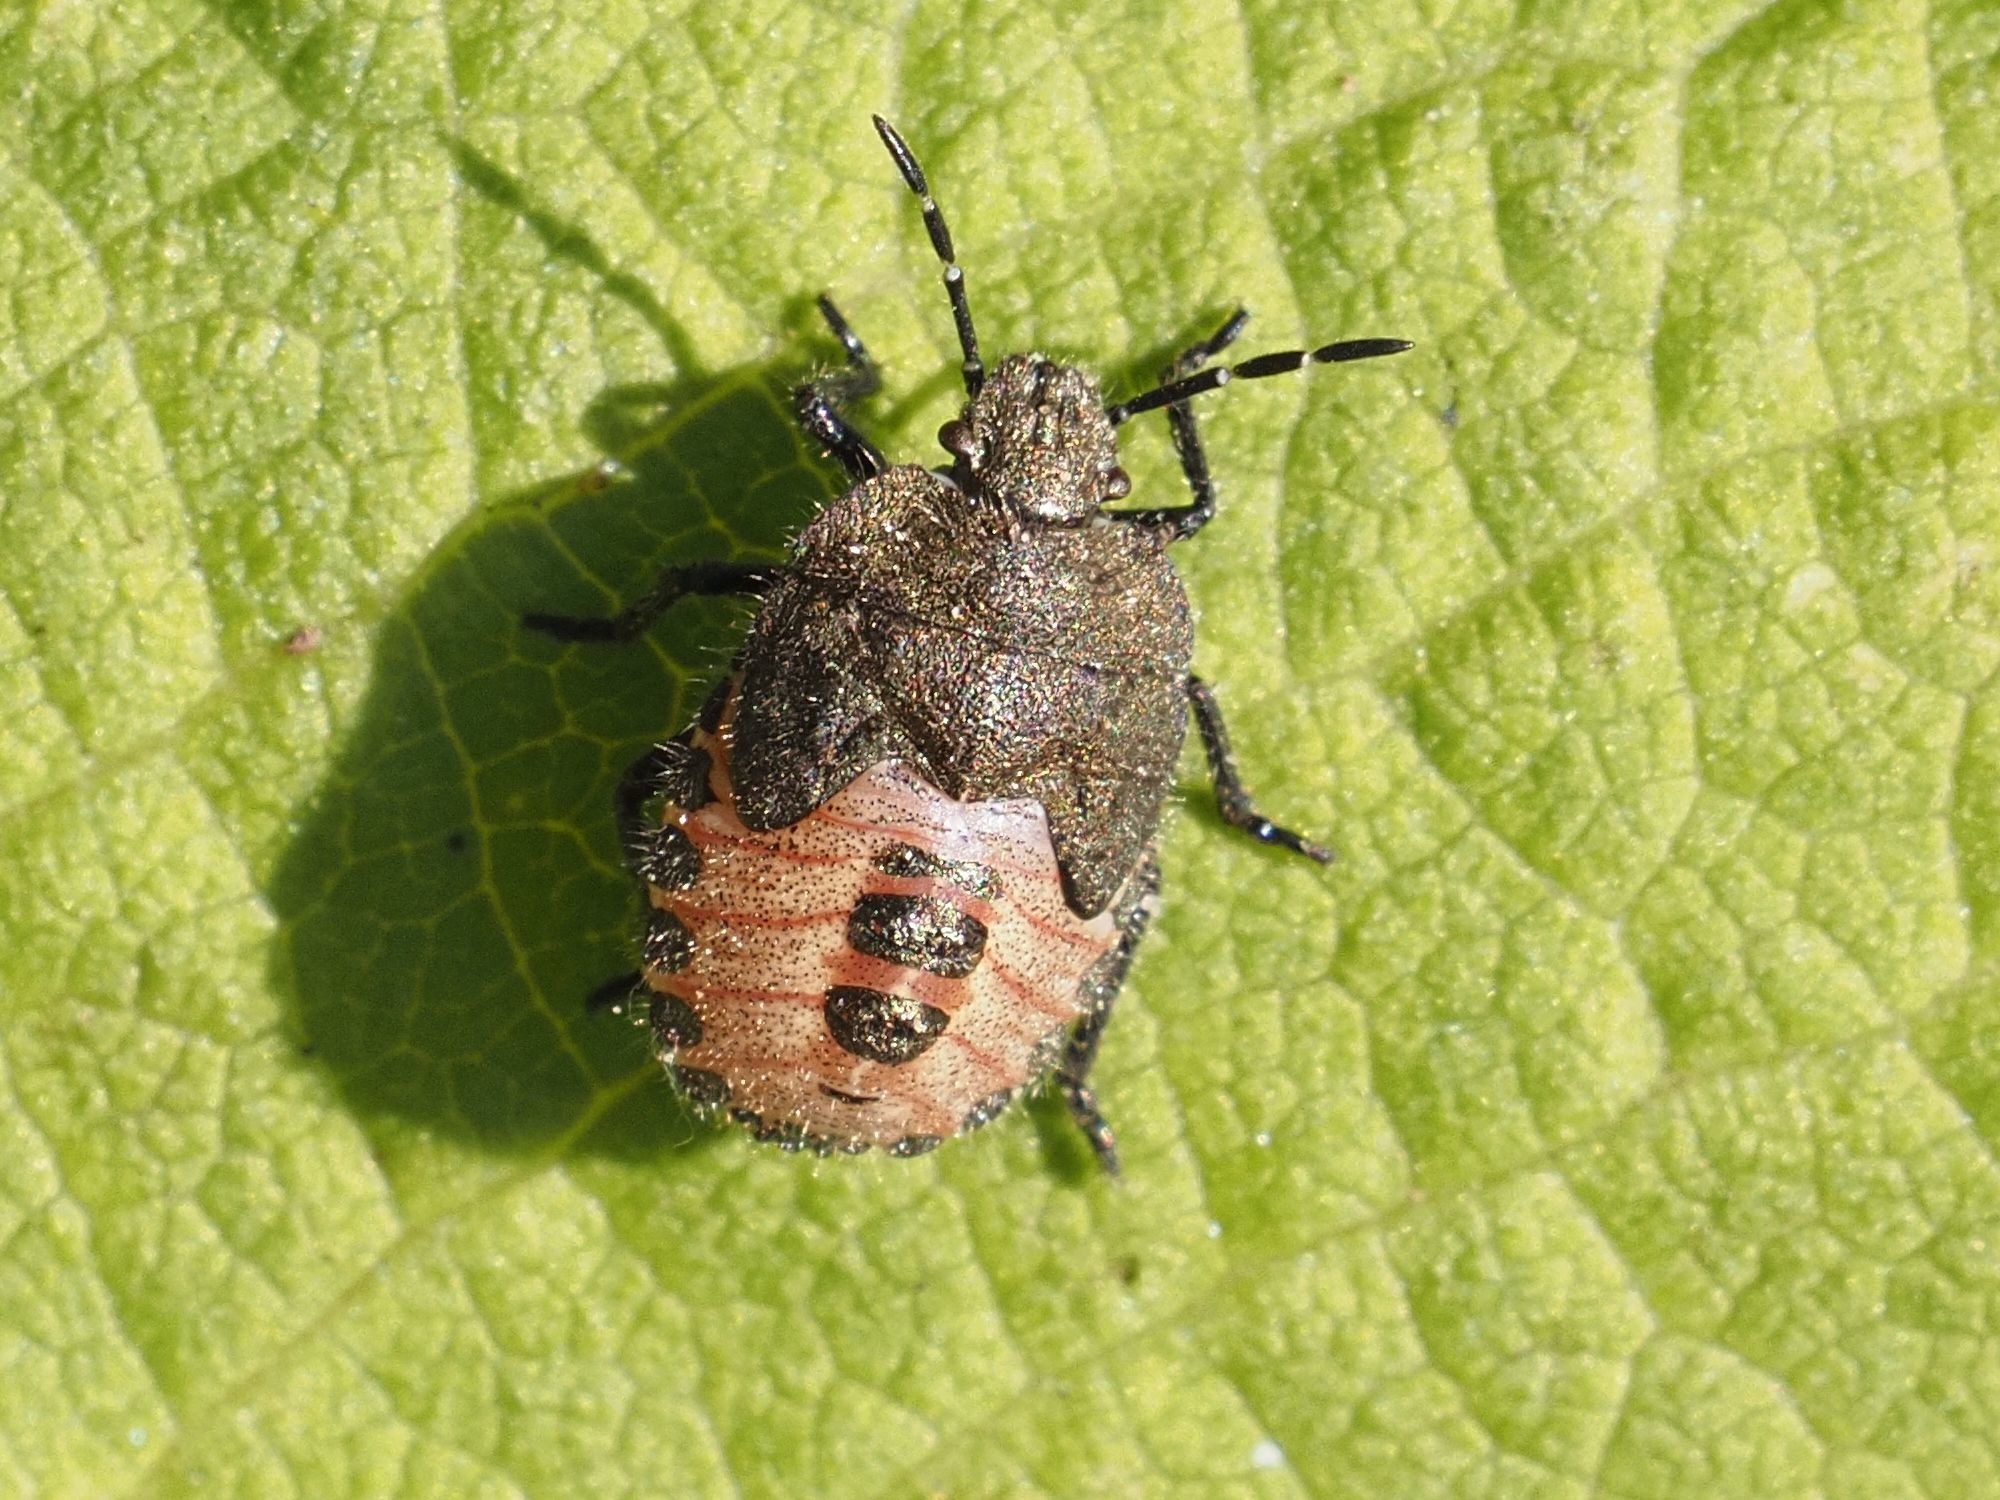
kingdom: Animalia
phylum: Arthropoda
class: Insecta
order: Hemiptera
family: Pentatomidae
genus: Dolycoris
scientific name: Dolycoris baccarum
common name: Sloe bug
